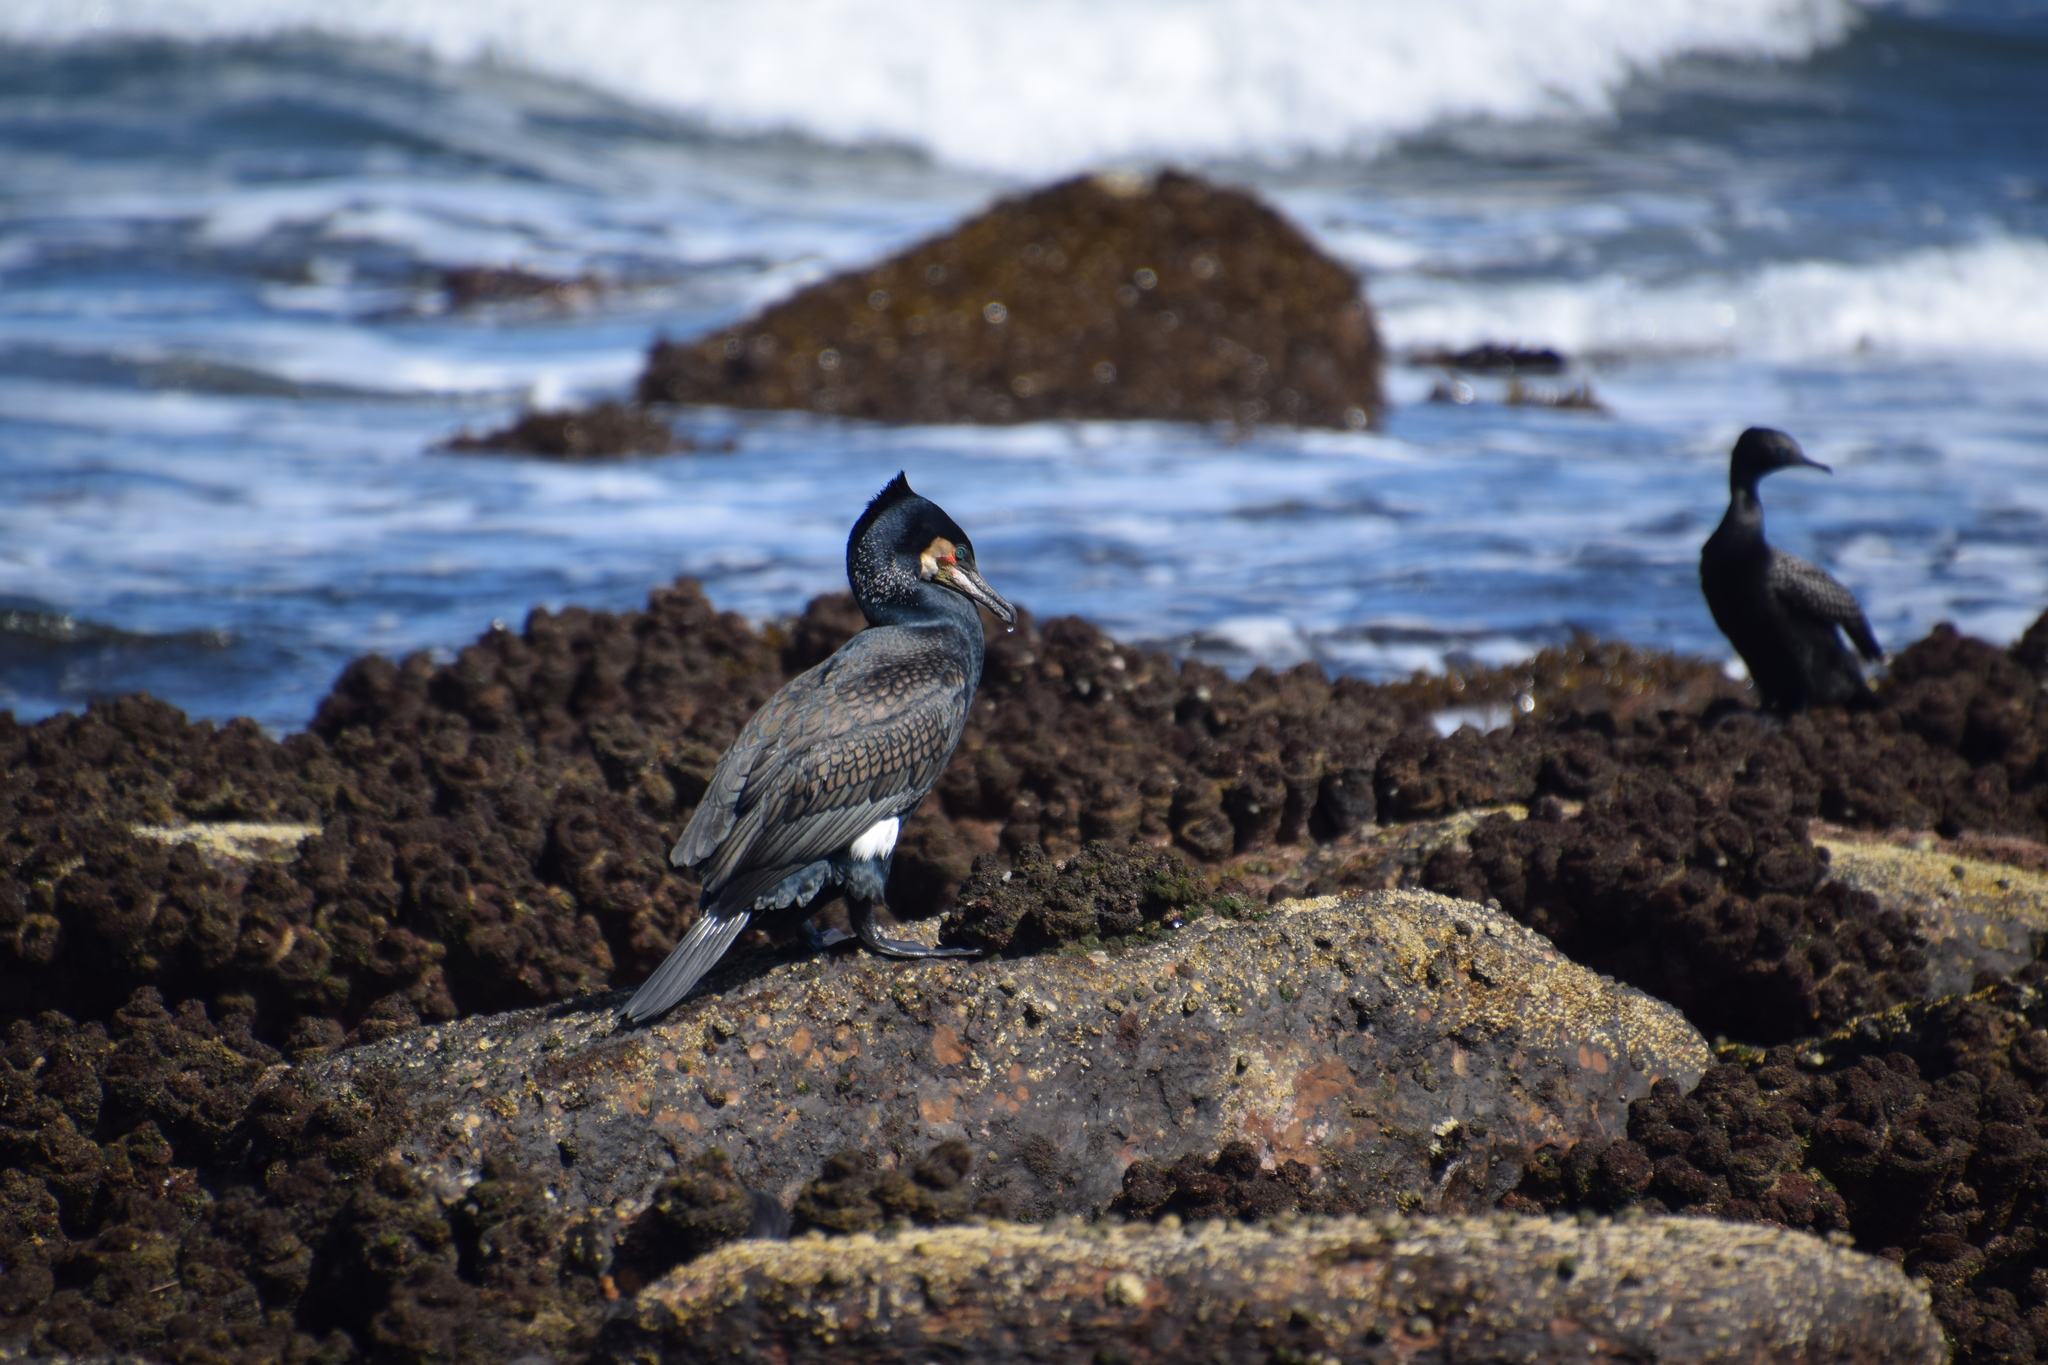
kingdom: Animalia
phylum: Chordata
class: Aves
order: Suliformes
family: Phalacrocoracidae
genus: Phalacrocorax
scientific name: Phalacrocorax carbo
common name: Great cormorant
